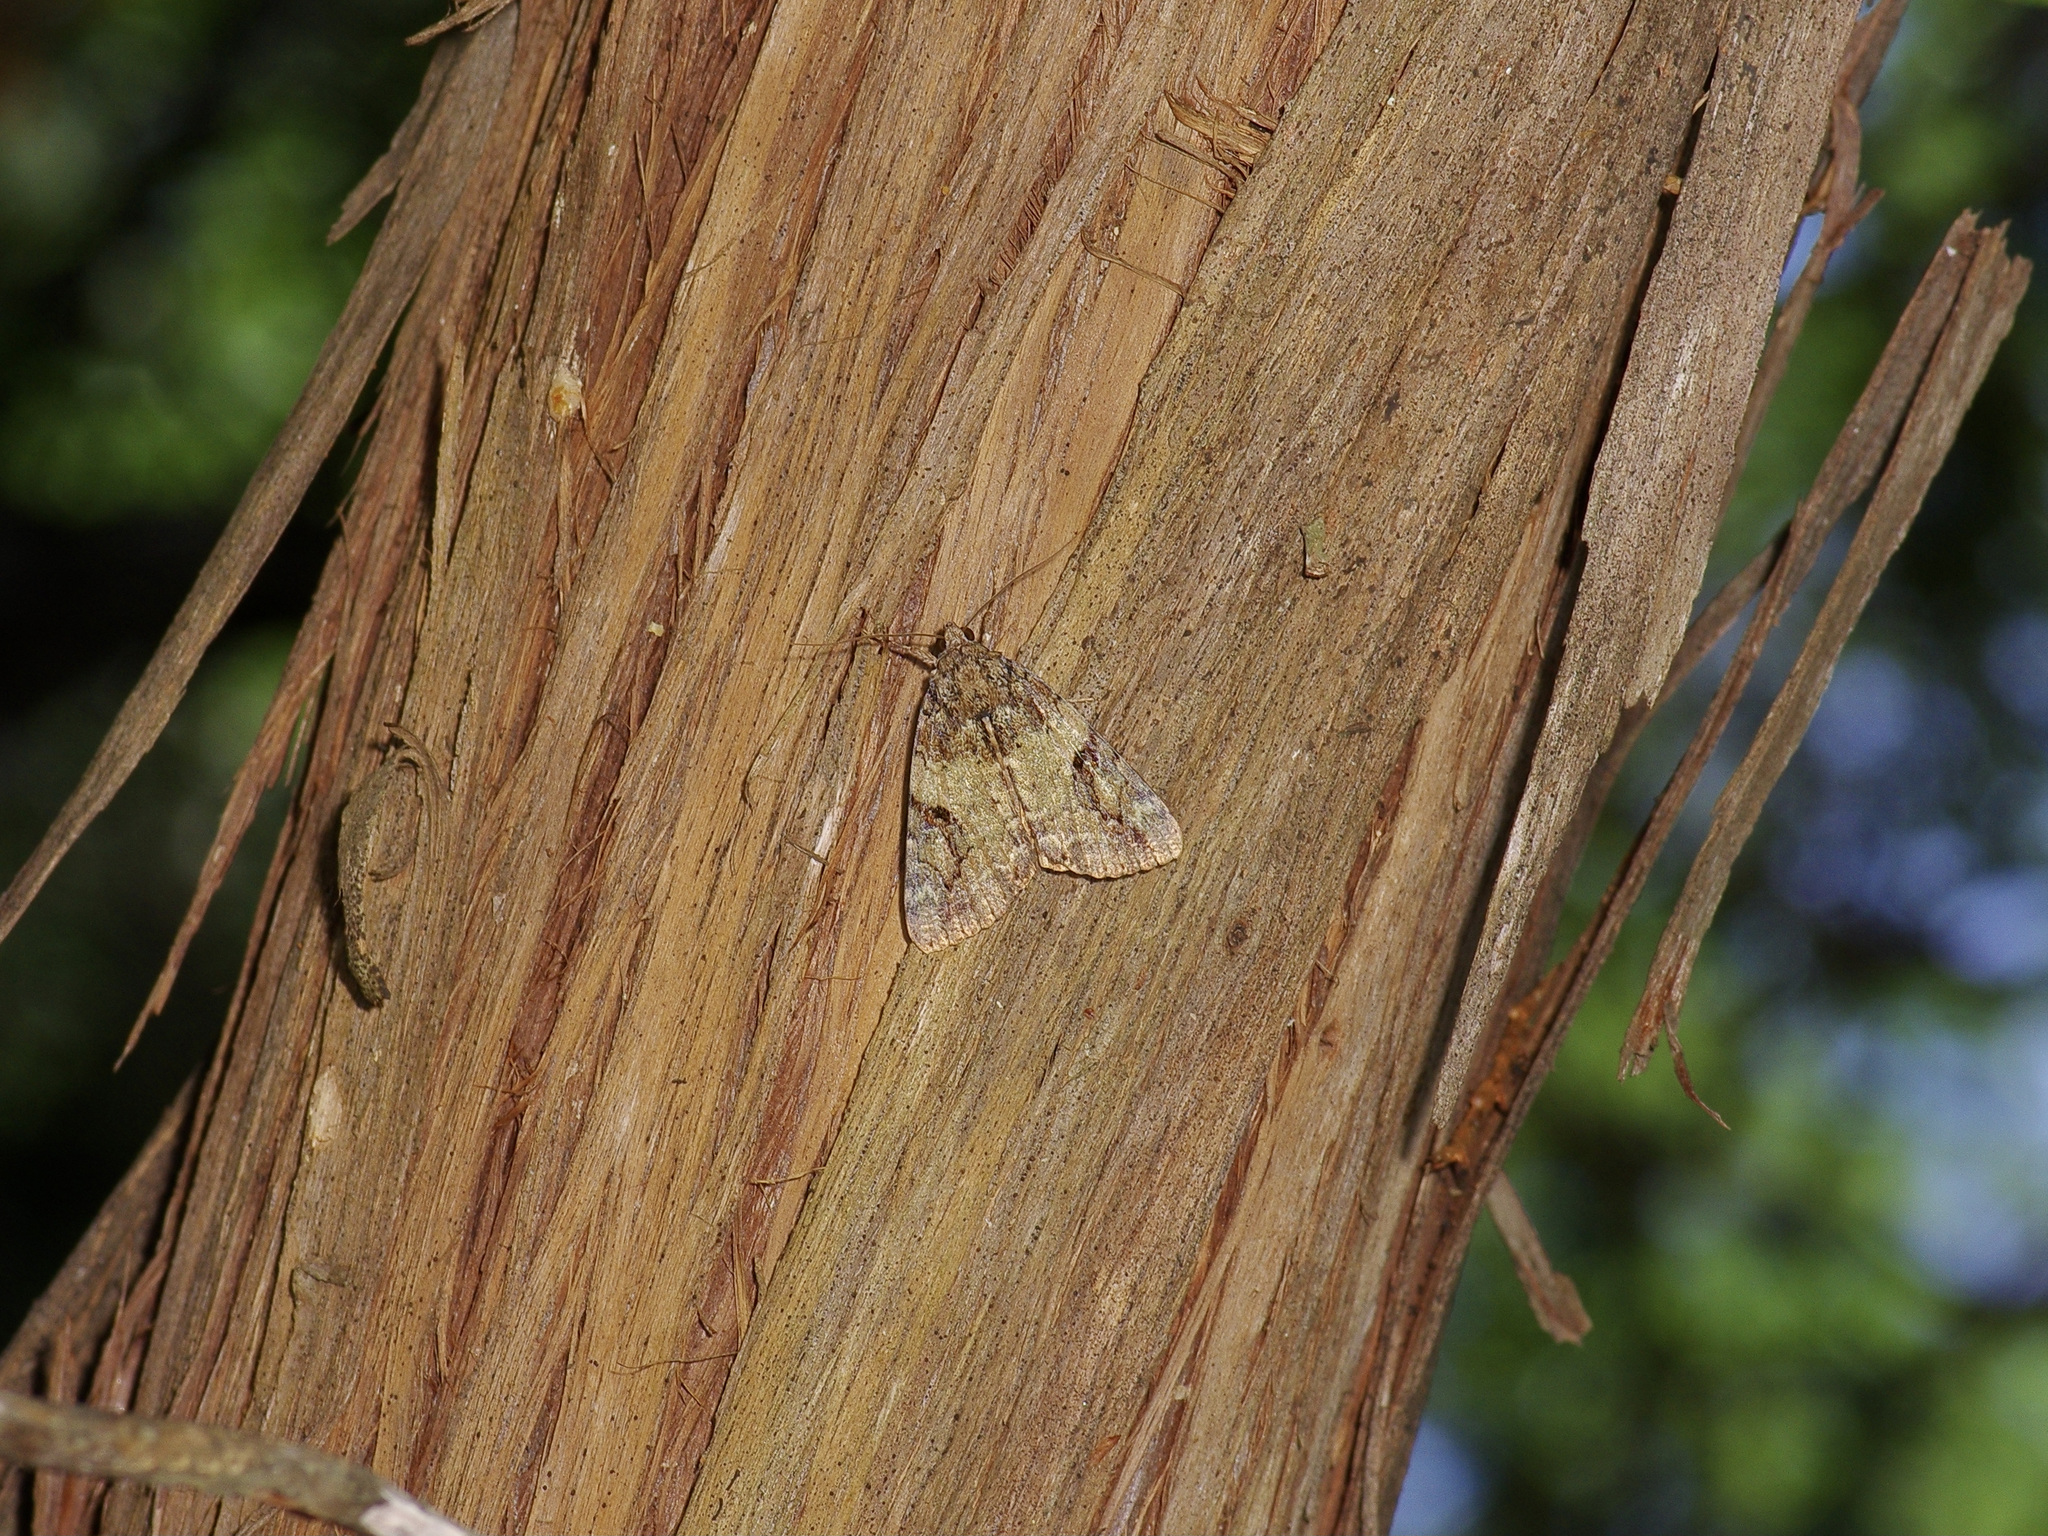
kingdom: Animalia
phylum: Arthropoda
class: Insecta
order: Lepidoptera
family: Erebidae
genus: Catocala
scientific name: Catocala micronympha
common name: Little nymph underwing
